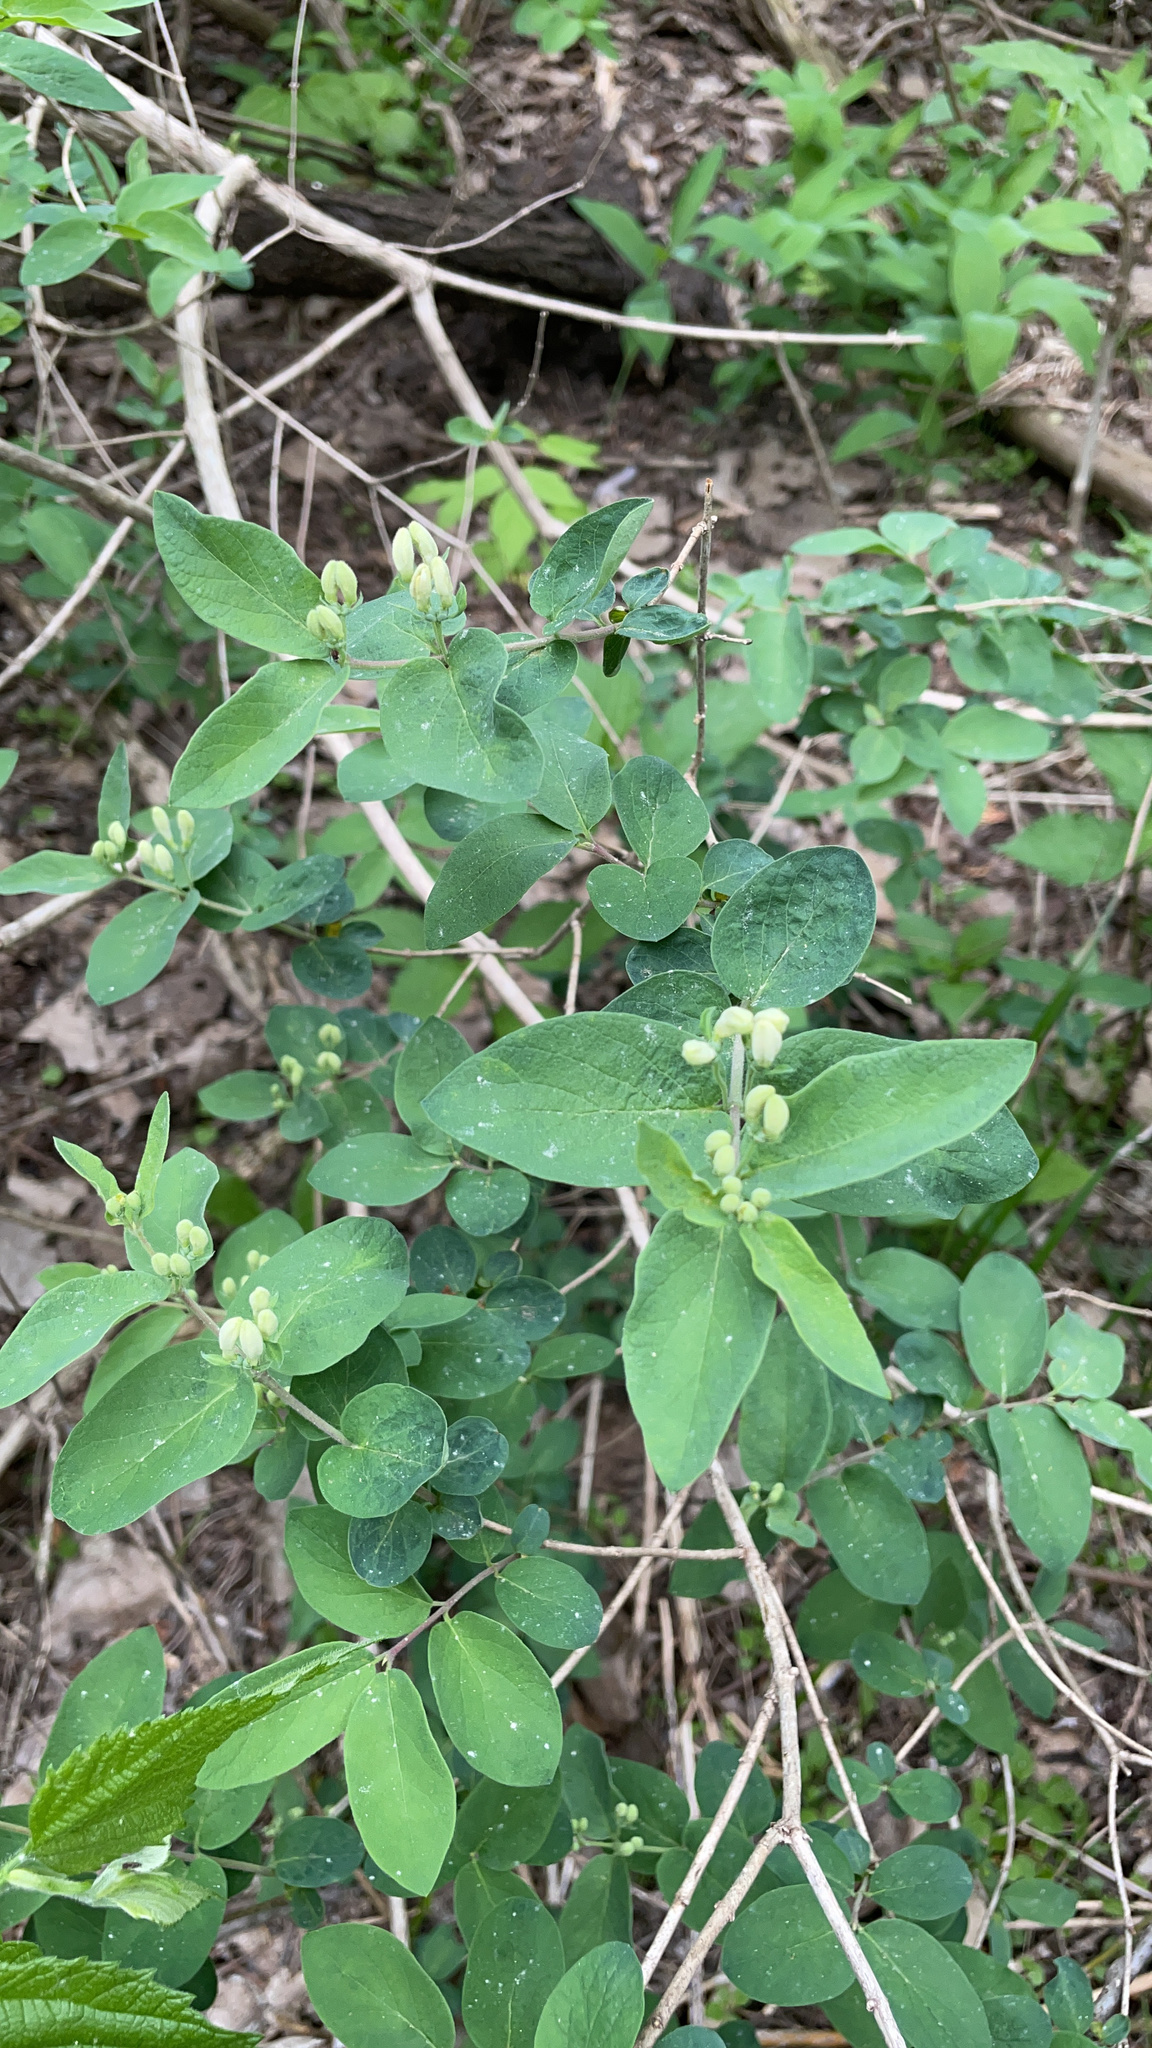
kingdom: Plantae
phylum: Tracheophyta
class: Magnoliopsida
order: Dipsacales
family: Caprifoliaceae
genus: Lonicera
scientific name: Lonicera morrowii
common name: Morrow's honeysuckle
